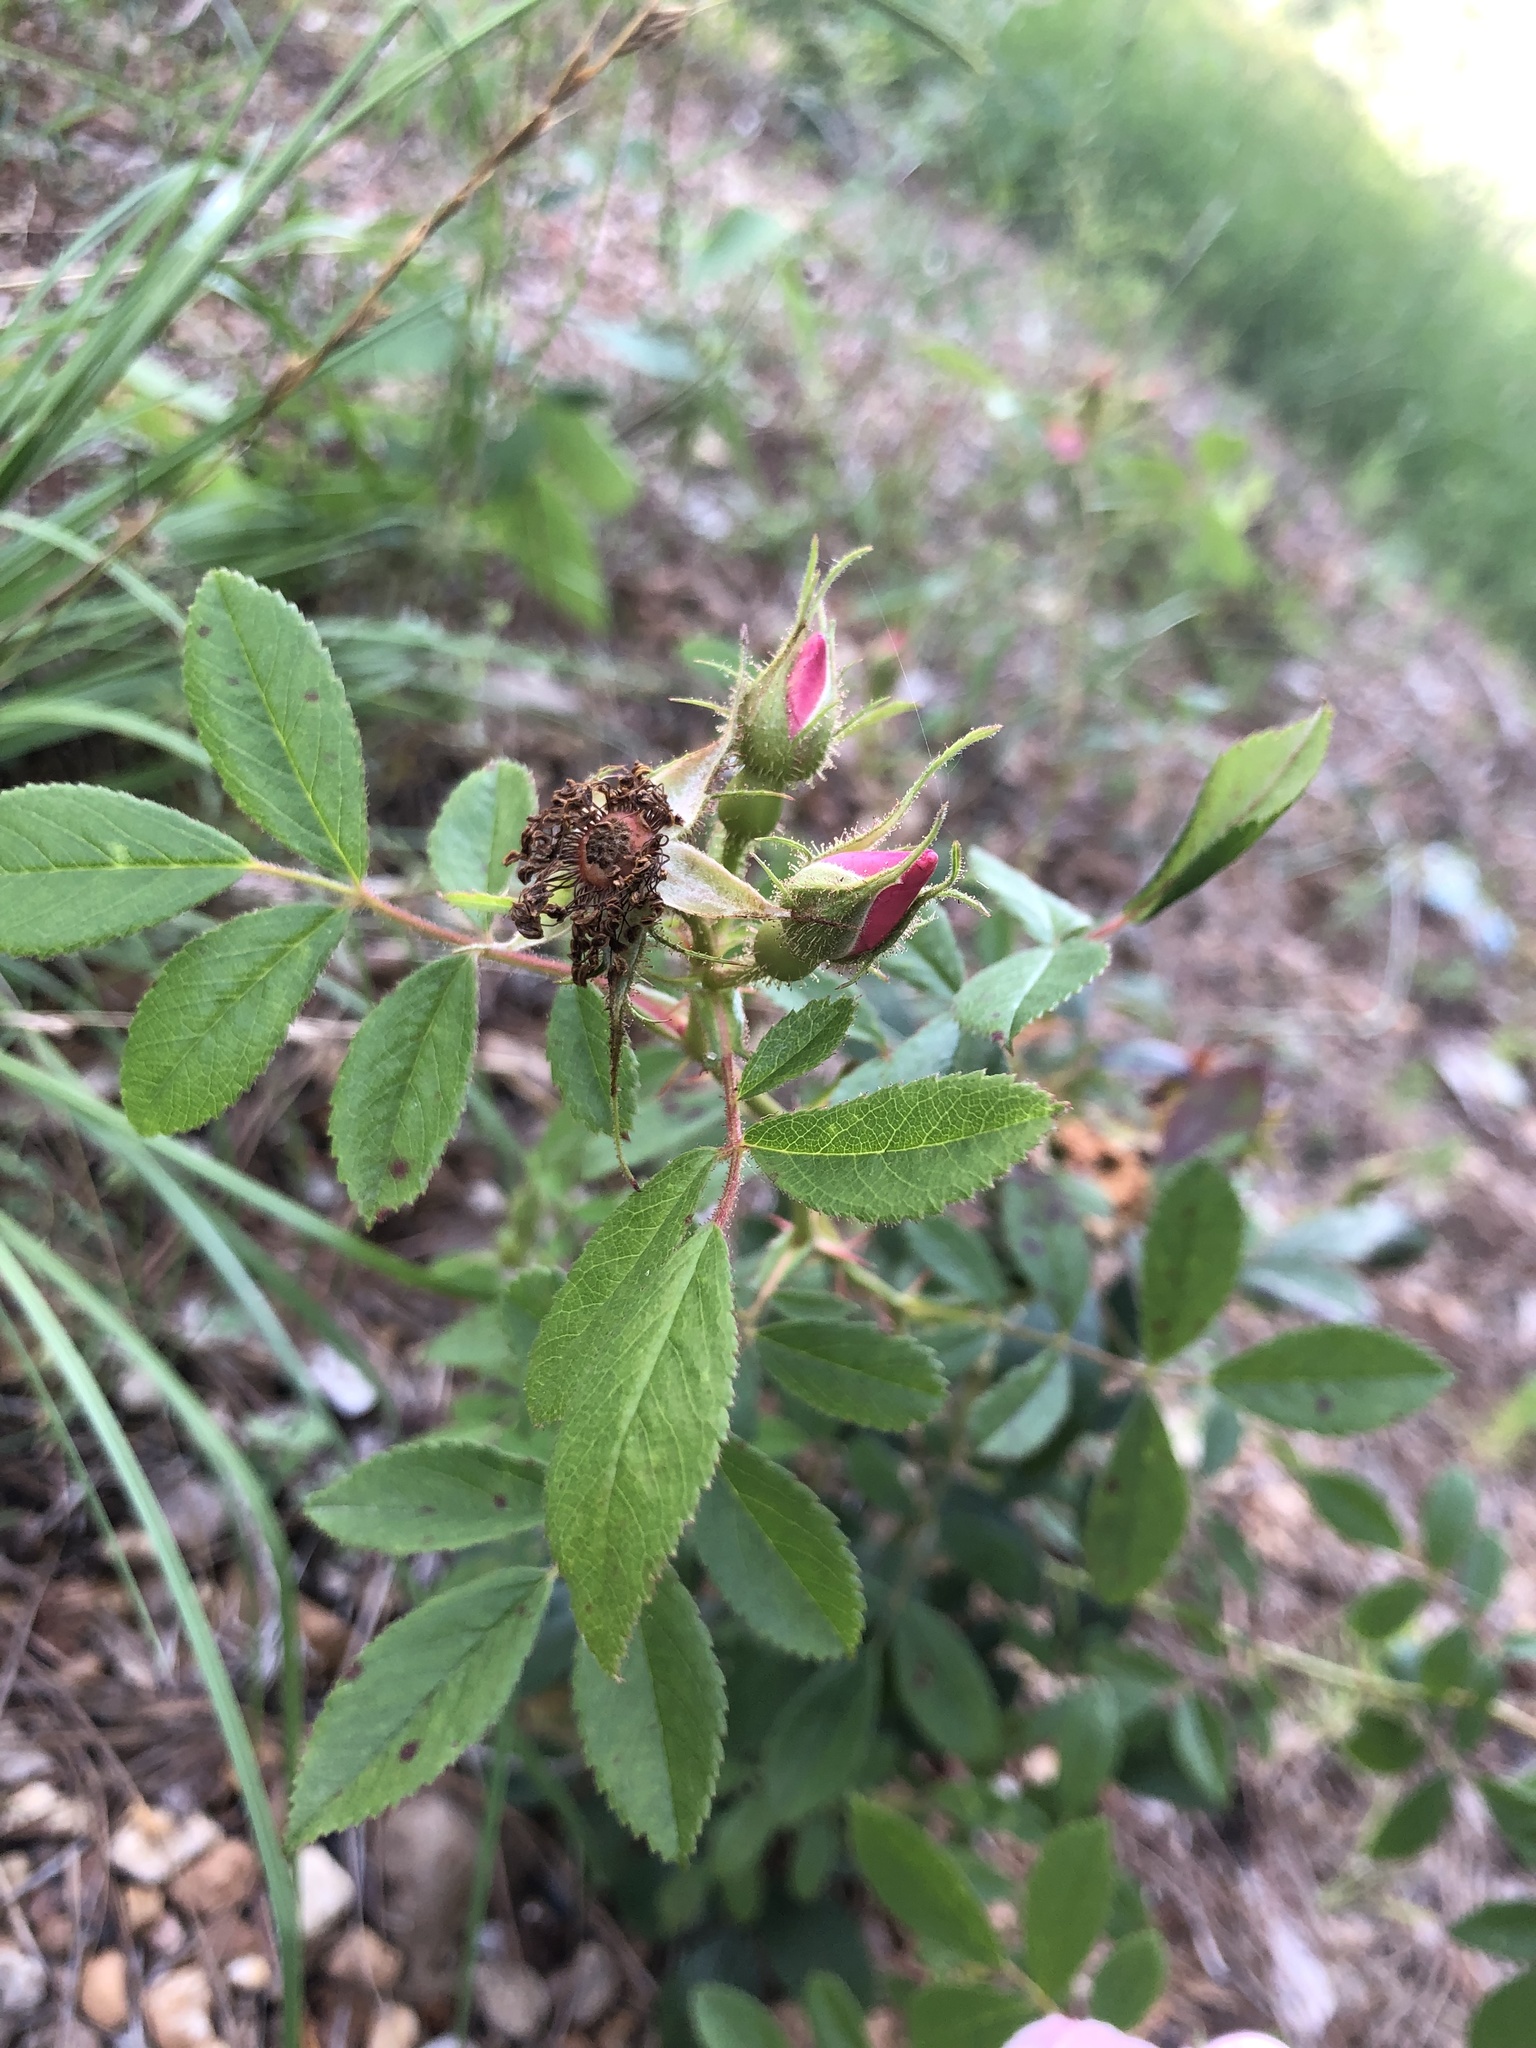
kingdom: Plantae
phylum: Tracheophyta
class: Magnoliopsida
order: Rosales
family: Rosaceae
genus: Rosa
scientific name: Rosa carolina
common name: Pasture rose
